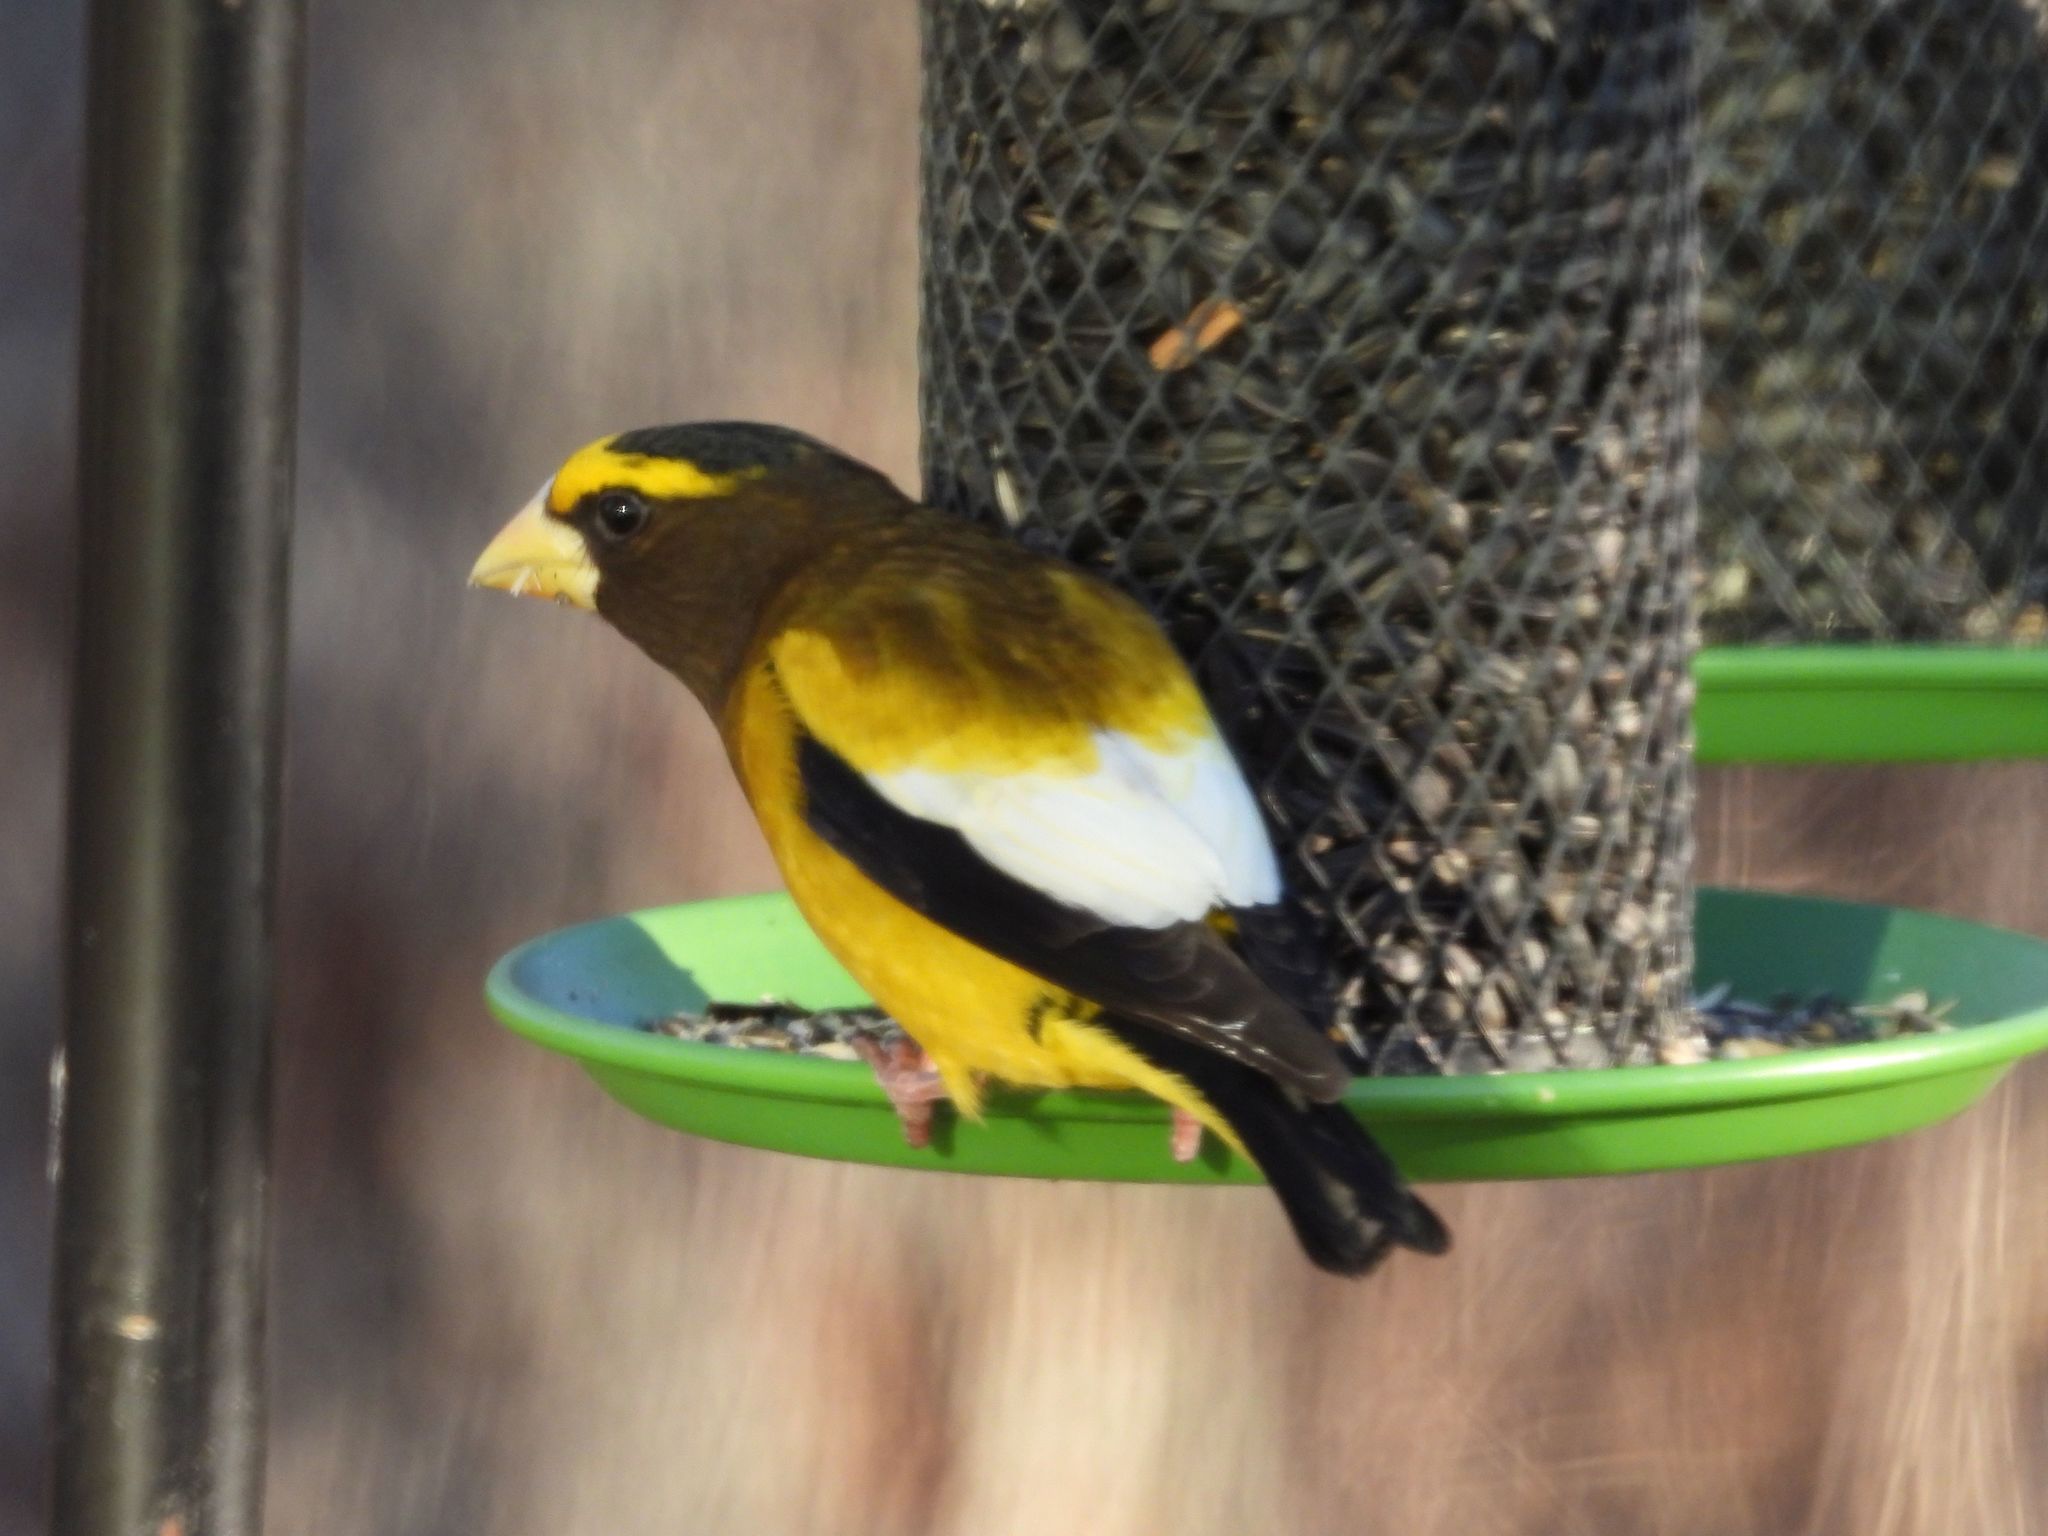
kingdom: Animalia
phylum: Chordata
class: Aves
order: Passeriformes
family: Fringillidae
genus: Hesperiphona
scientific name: Hesperiphona vespertina
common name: Evening grosbeak
